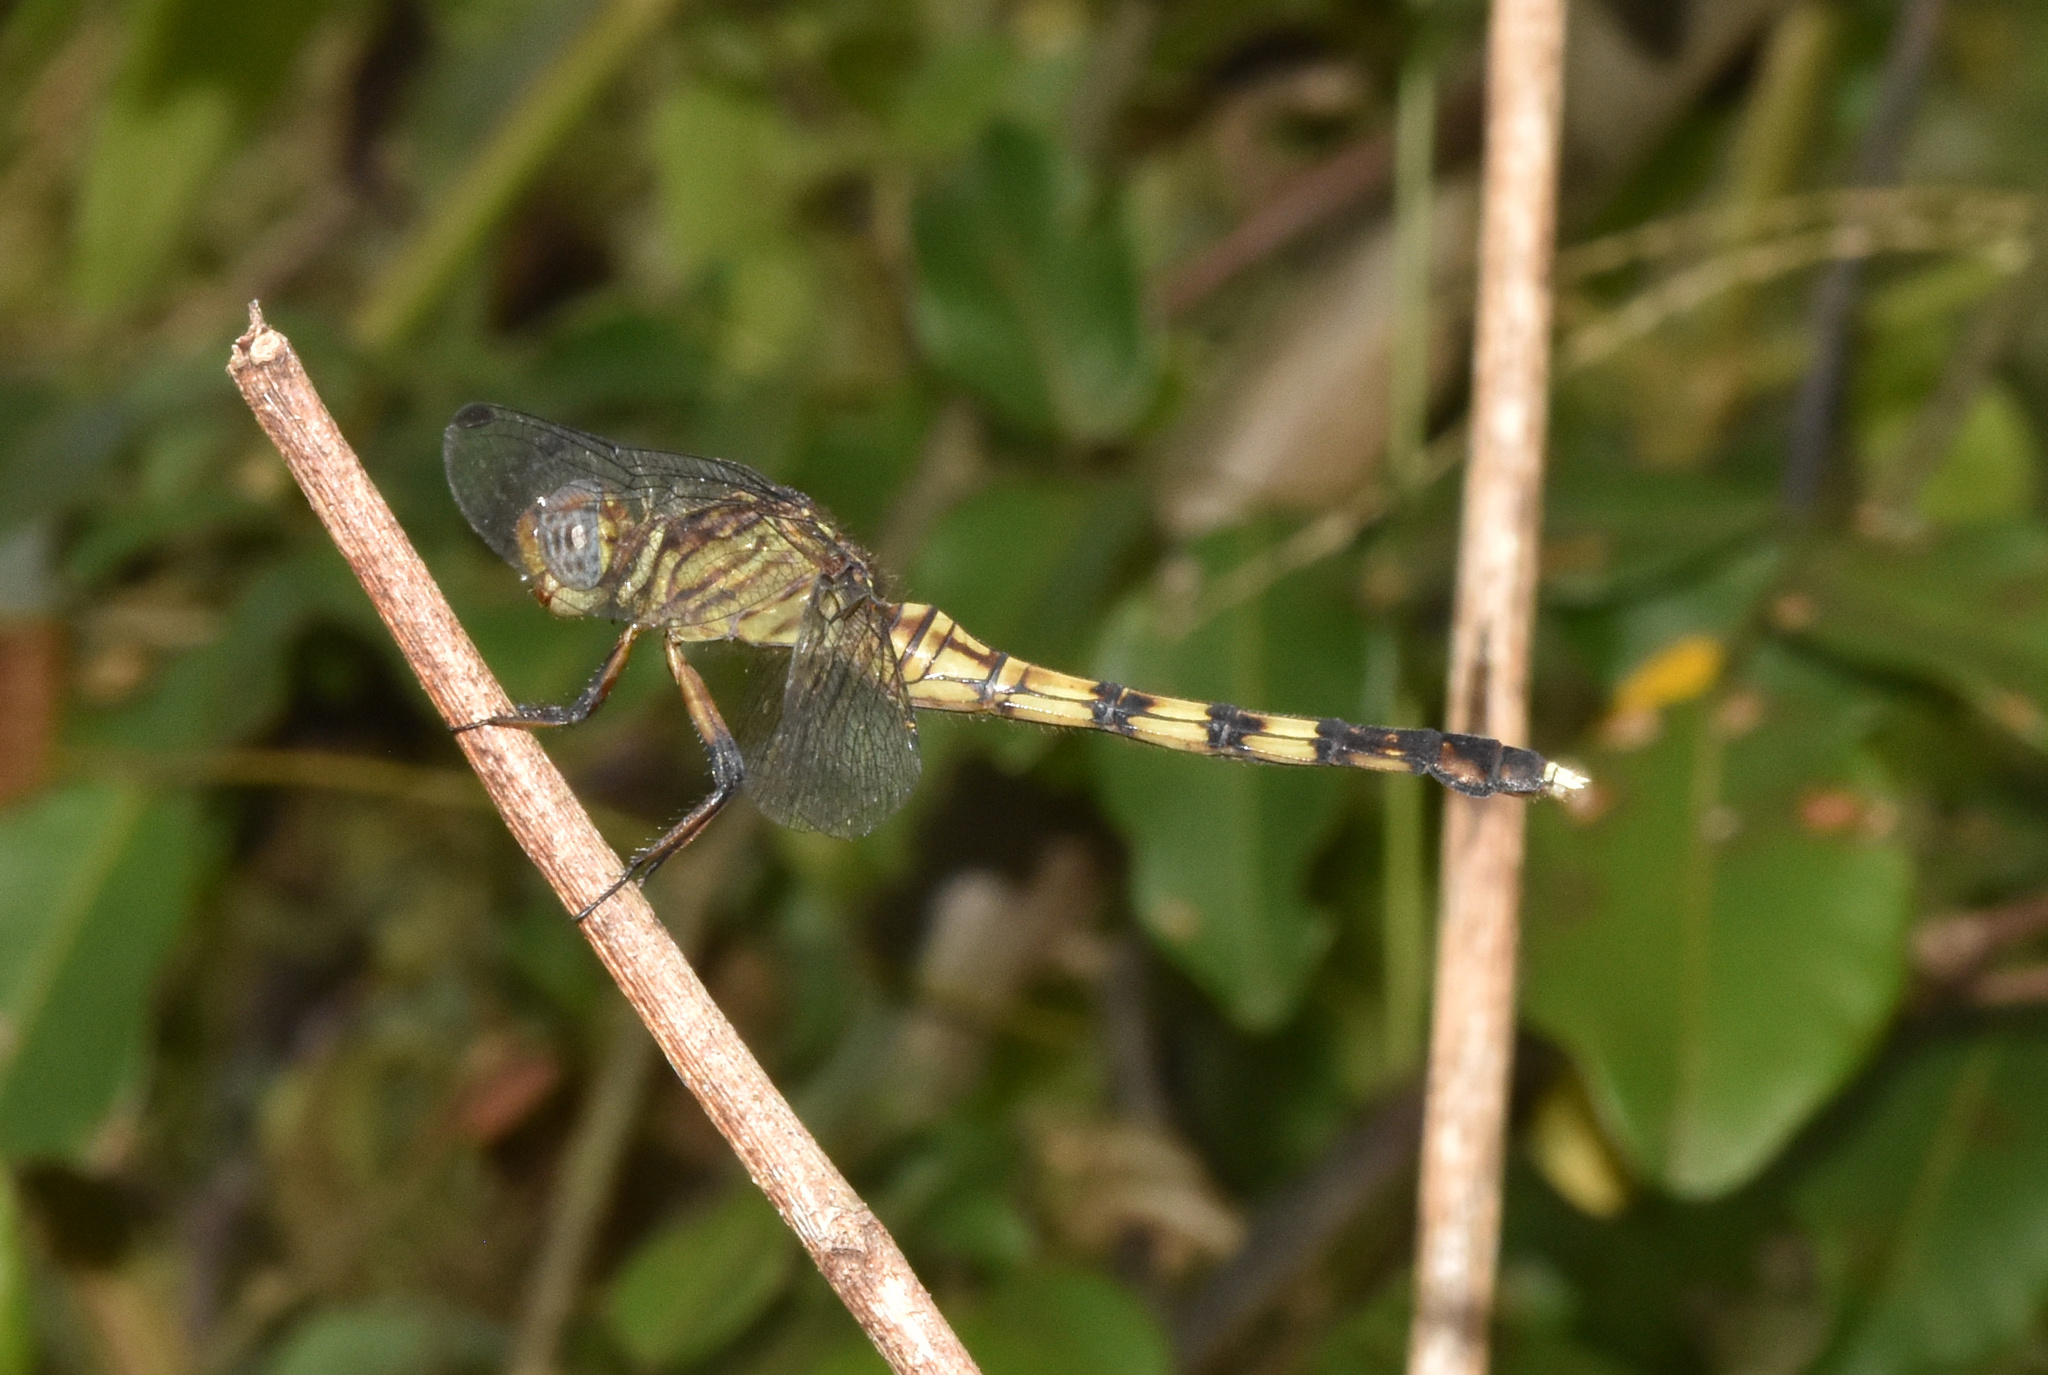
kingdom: Animalia
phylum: Arthropoda
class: Insecta
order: Odonata
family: Libellulidae
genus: Orthetrum
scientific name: Orthetrum julia
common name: Julia skimmer
